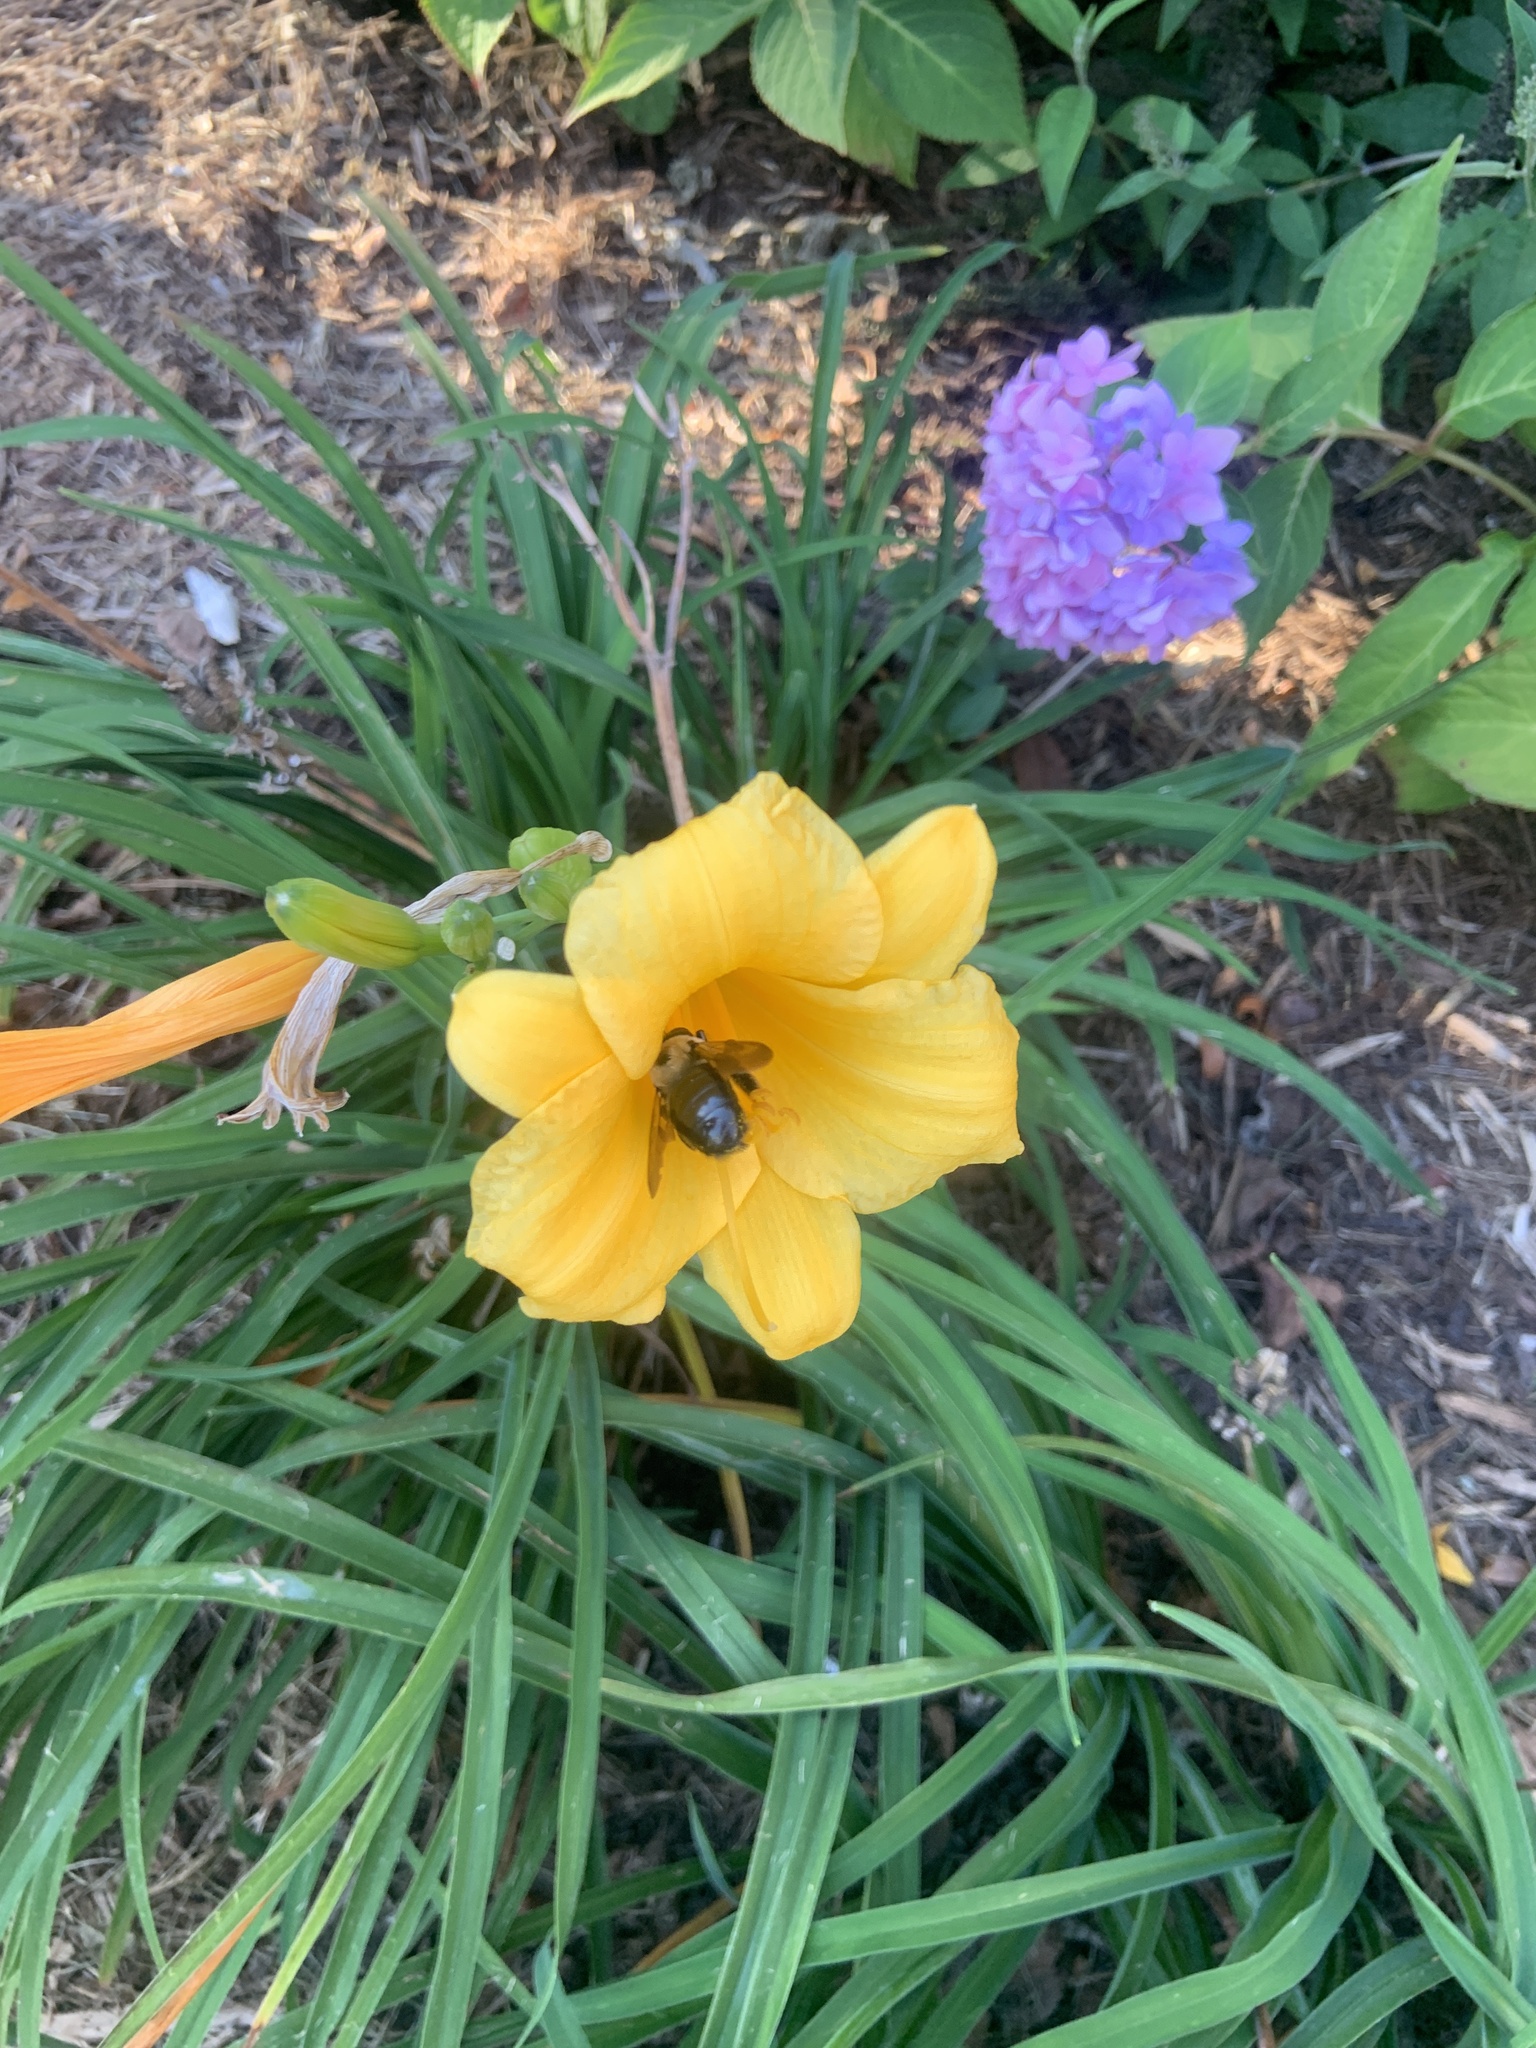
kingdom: Animalia
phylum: Arthropoda
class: Insecta
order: Hymenoptera
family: Apidae
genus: Xylocopa
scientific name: Xylocopa virginica
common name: Carpenter bee
